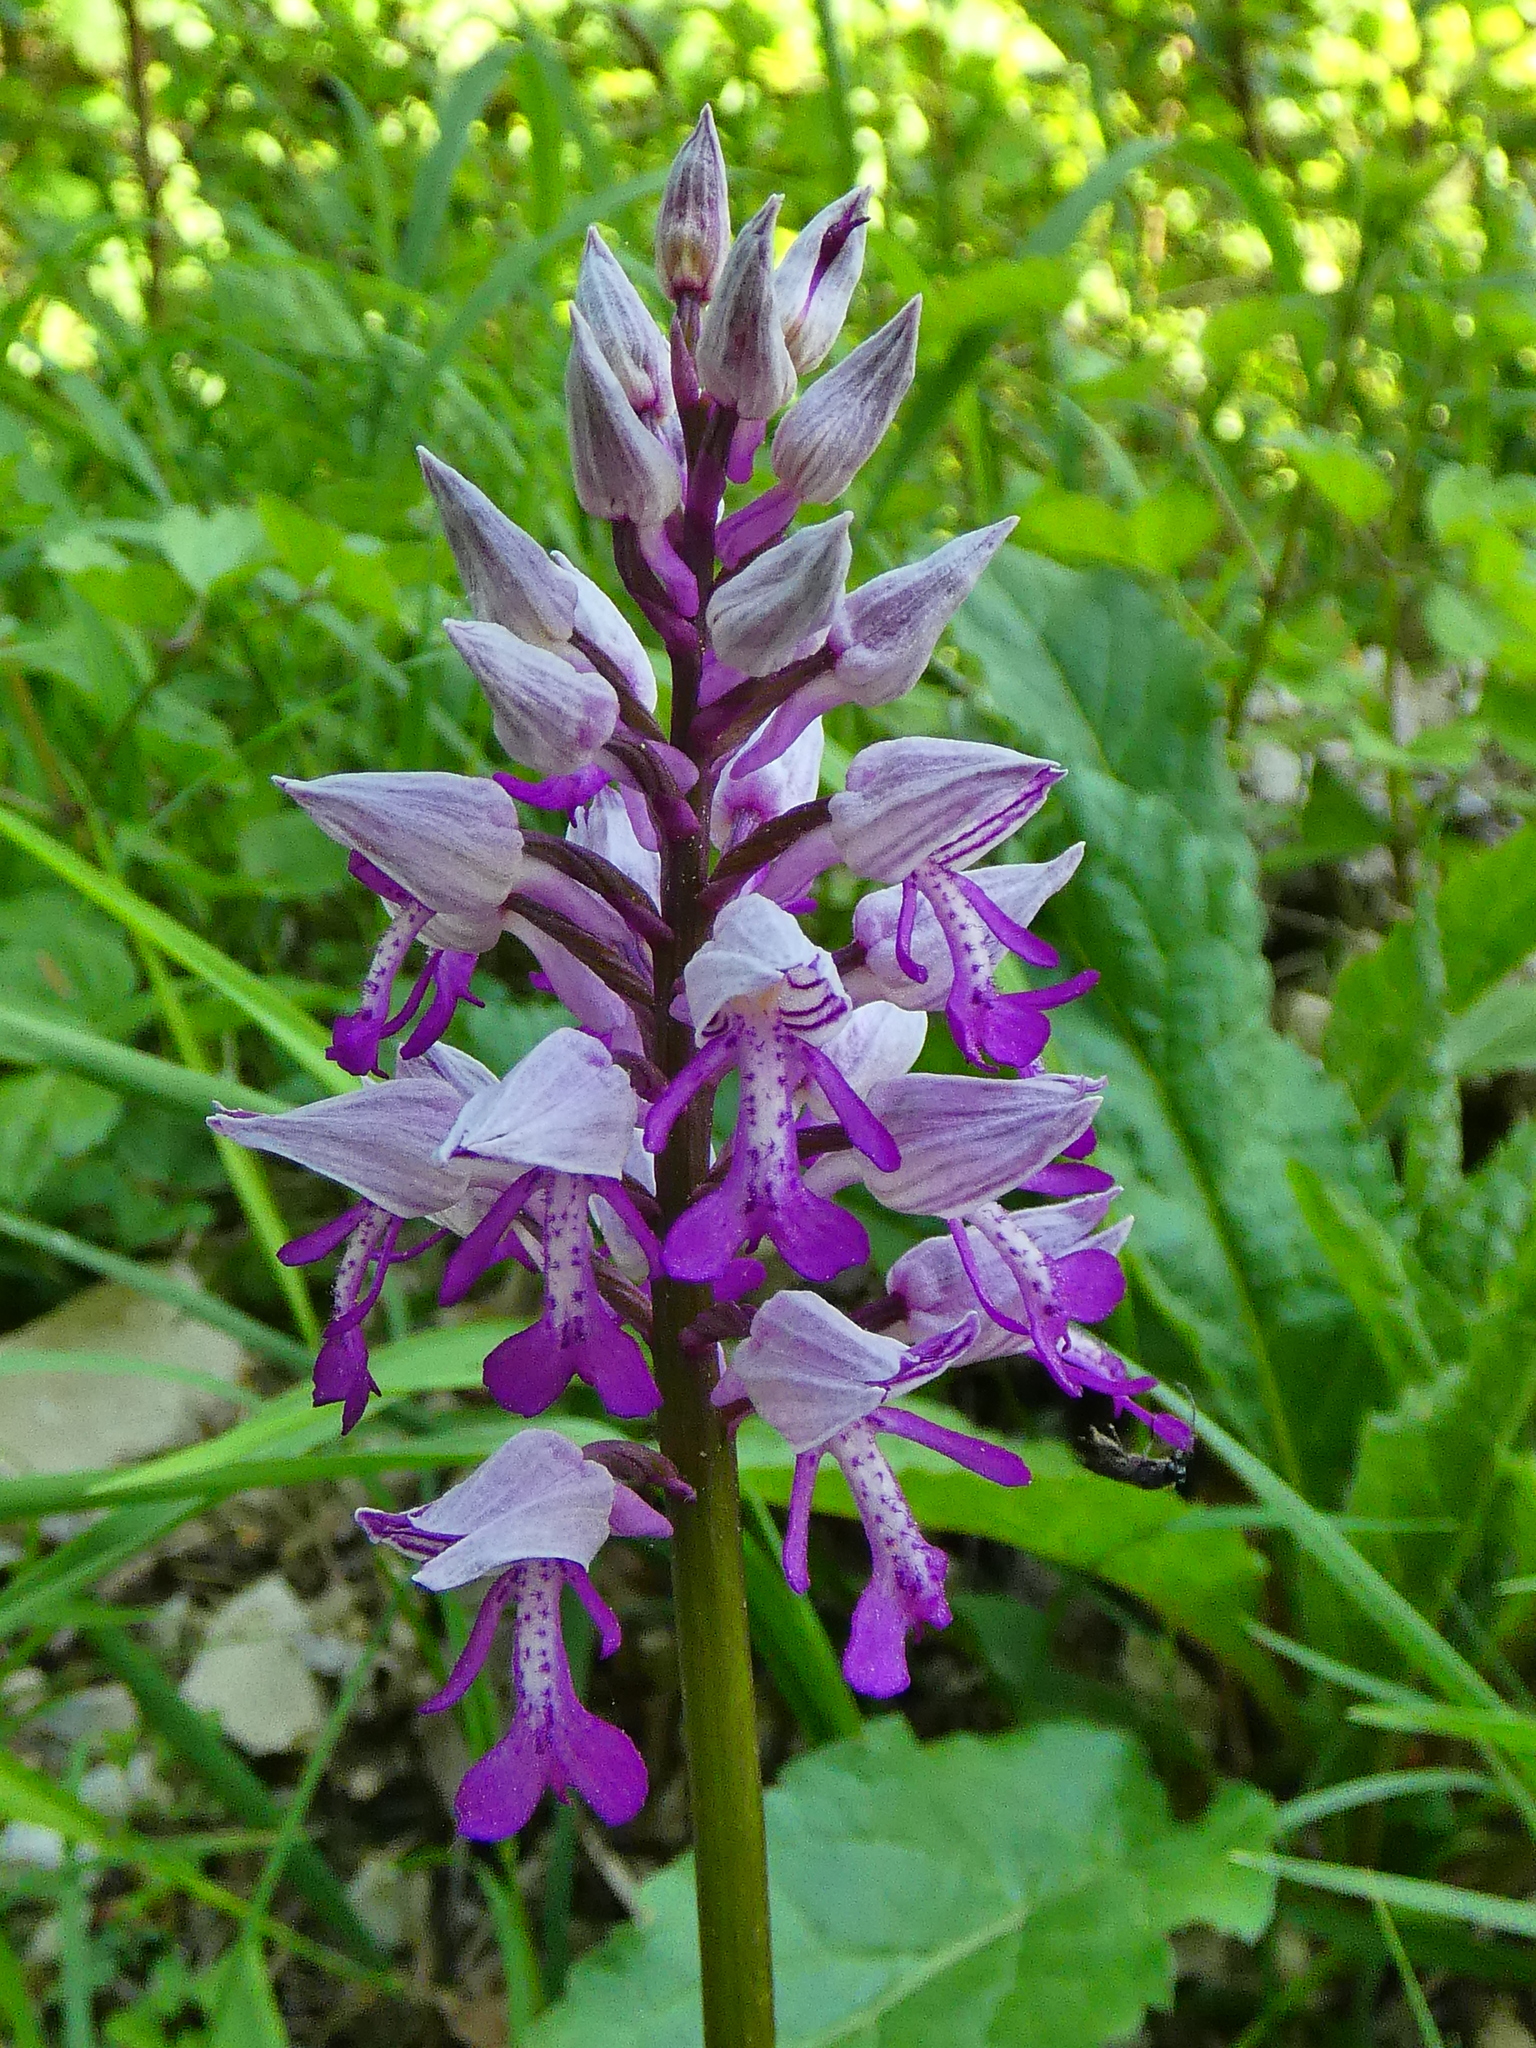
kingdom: Plantae
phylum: Tracheophyta
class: Liliopsida
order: Asparagales
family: Orchidaceae
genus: Orchis
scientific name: Orchis militaris
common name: Military orchid
